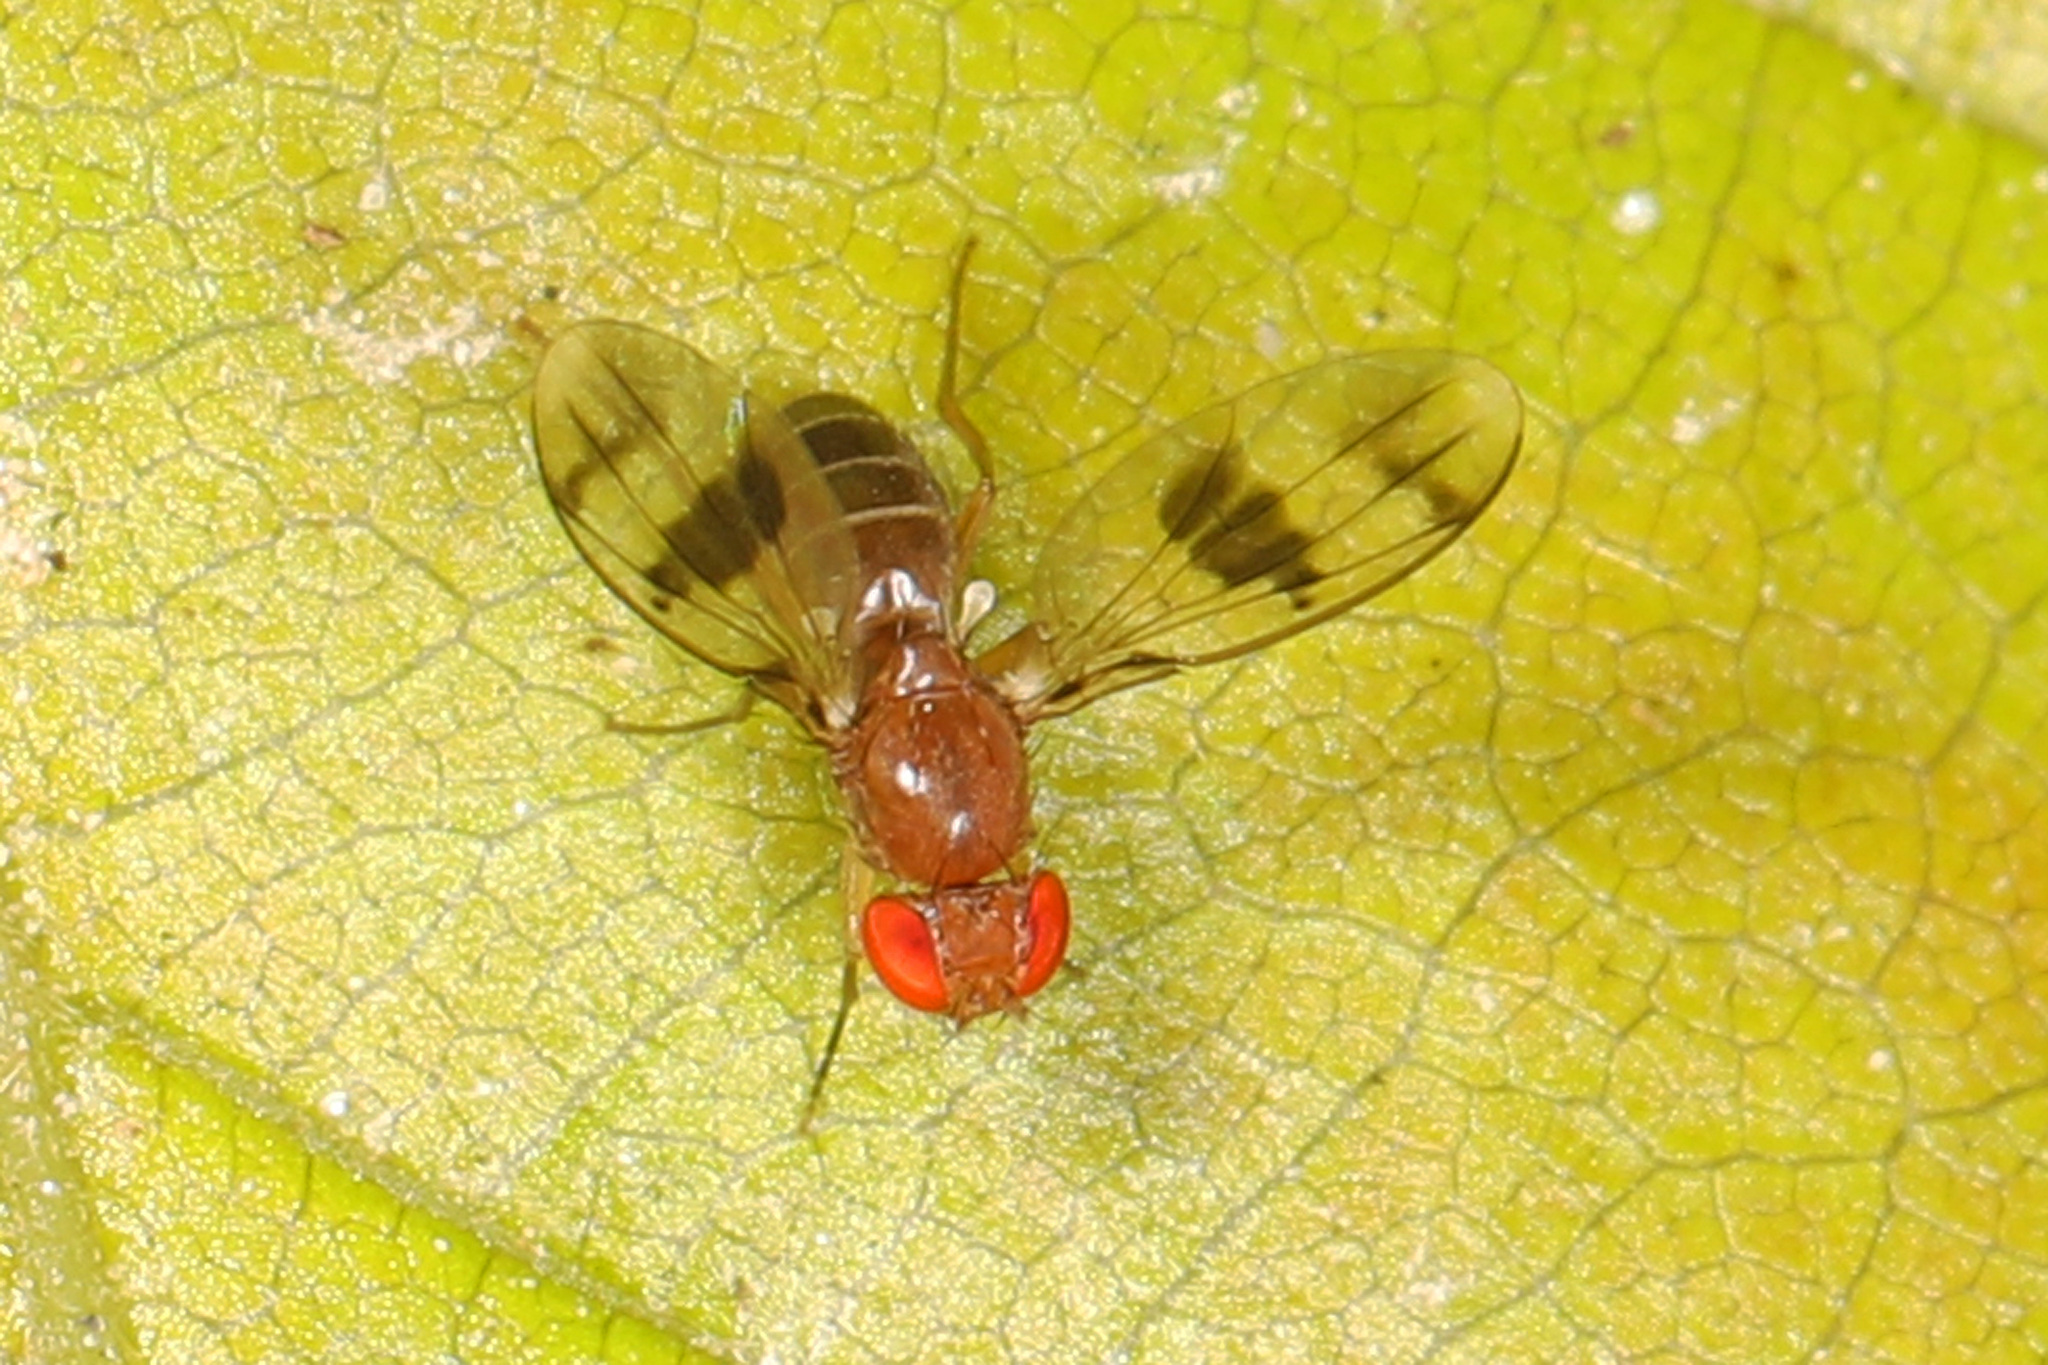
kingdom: Animalia
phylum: Arthropoda
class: Insecta
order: Diptera
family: Drosophilidae
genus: Chymomyza
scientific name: Chymomyza amoena
